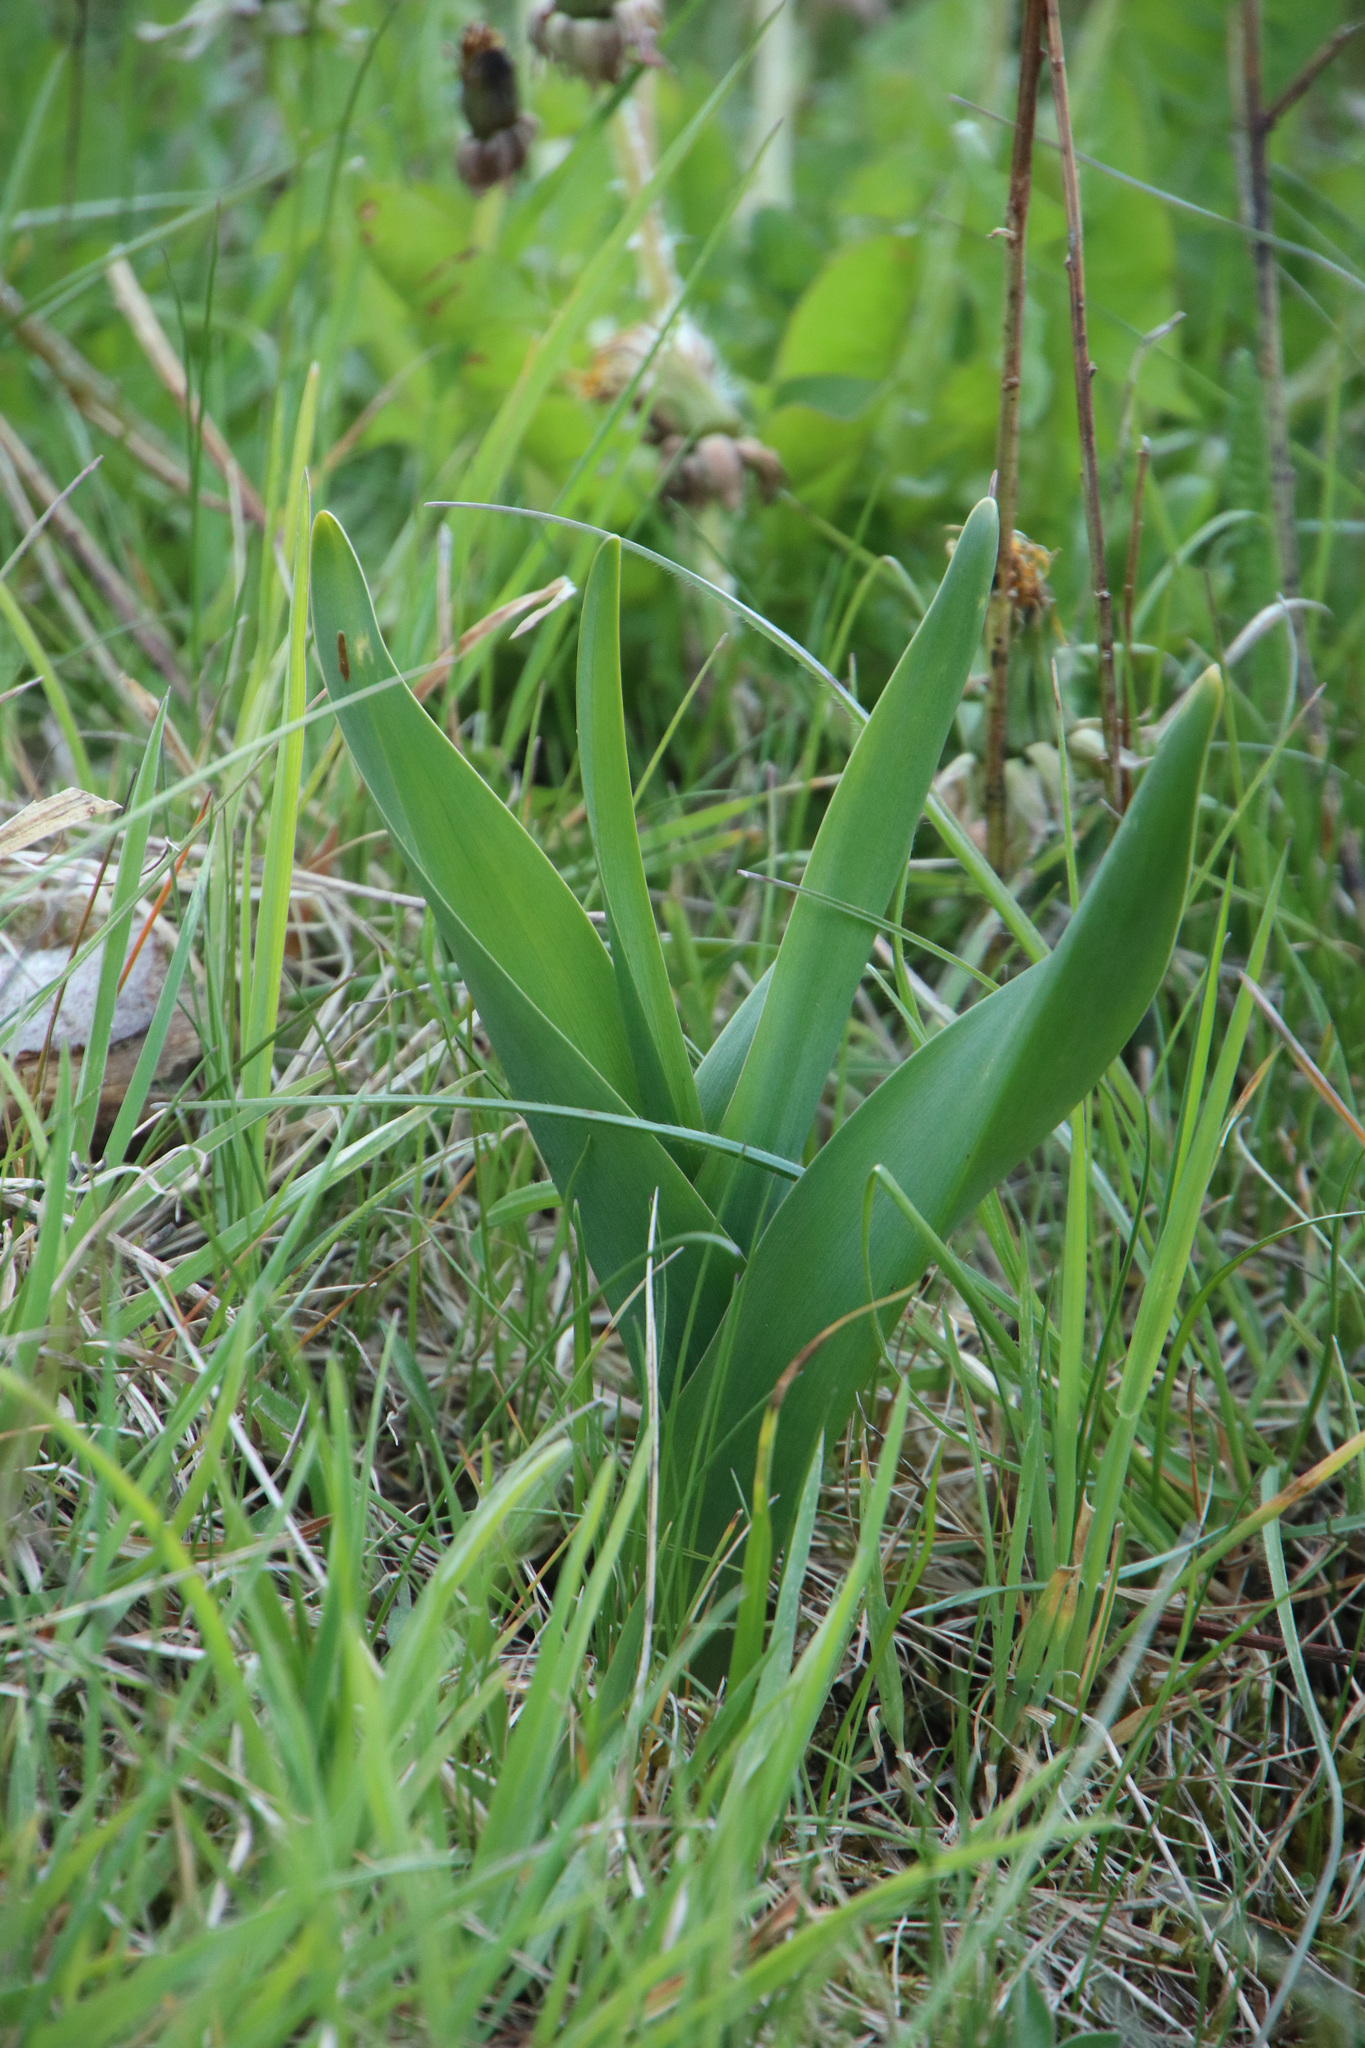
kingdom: Plantae
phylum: Tracheophyta
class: Liliopsida
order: Liliales
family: Colchicaceae
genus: Colchicum
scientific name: Colchicum autumnale
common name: Autumn crocus
